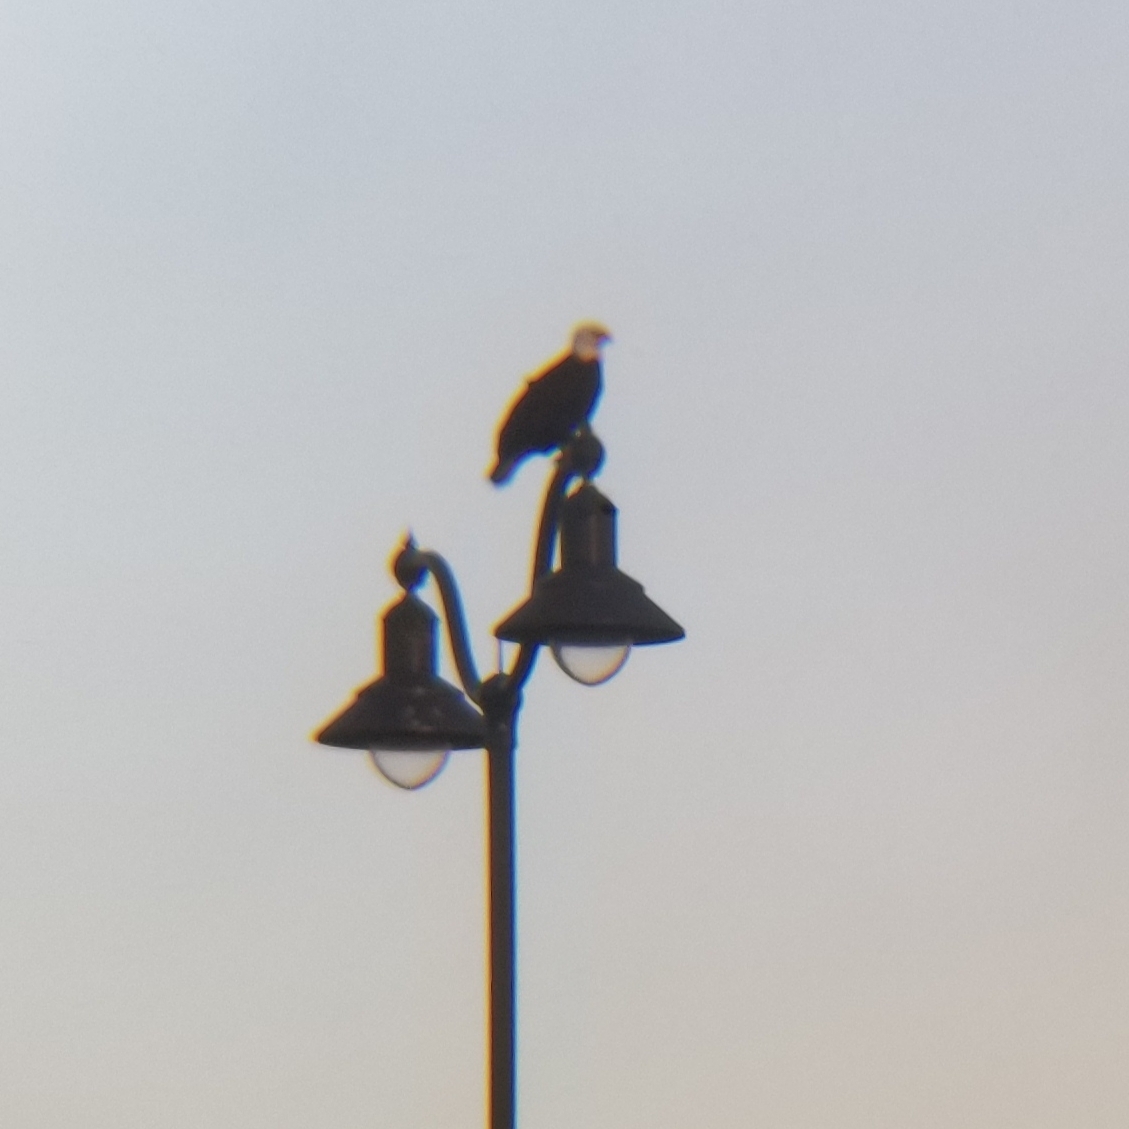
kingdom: Animalia
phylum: Chordata
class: Aves
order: Accipitriformes
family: Accipitridae
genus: Haliaeetus
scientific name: Haliaeetus leucocephalus
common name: Bald eagle
